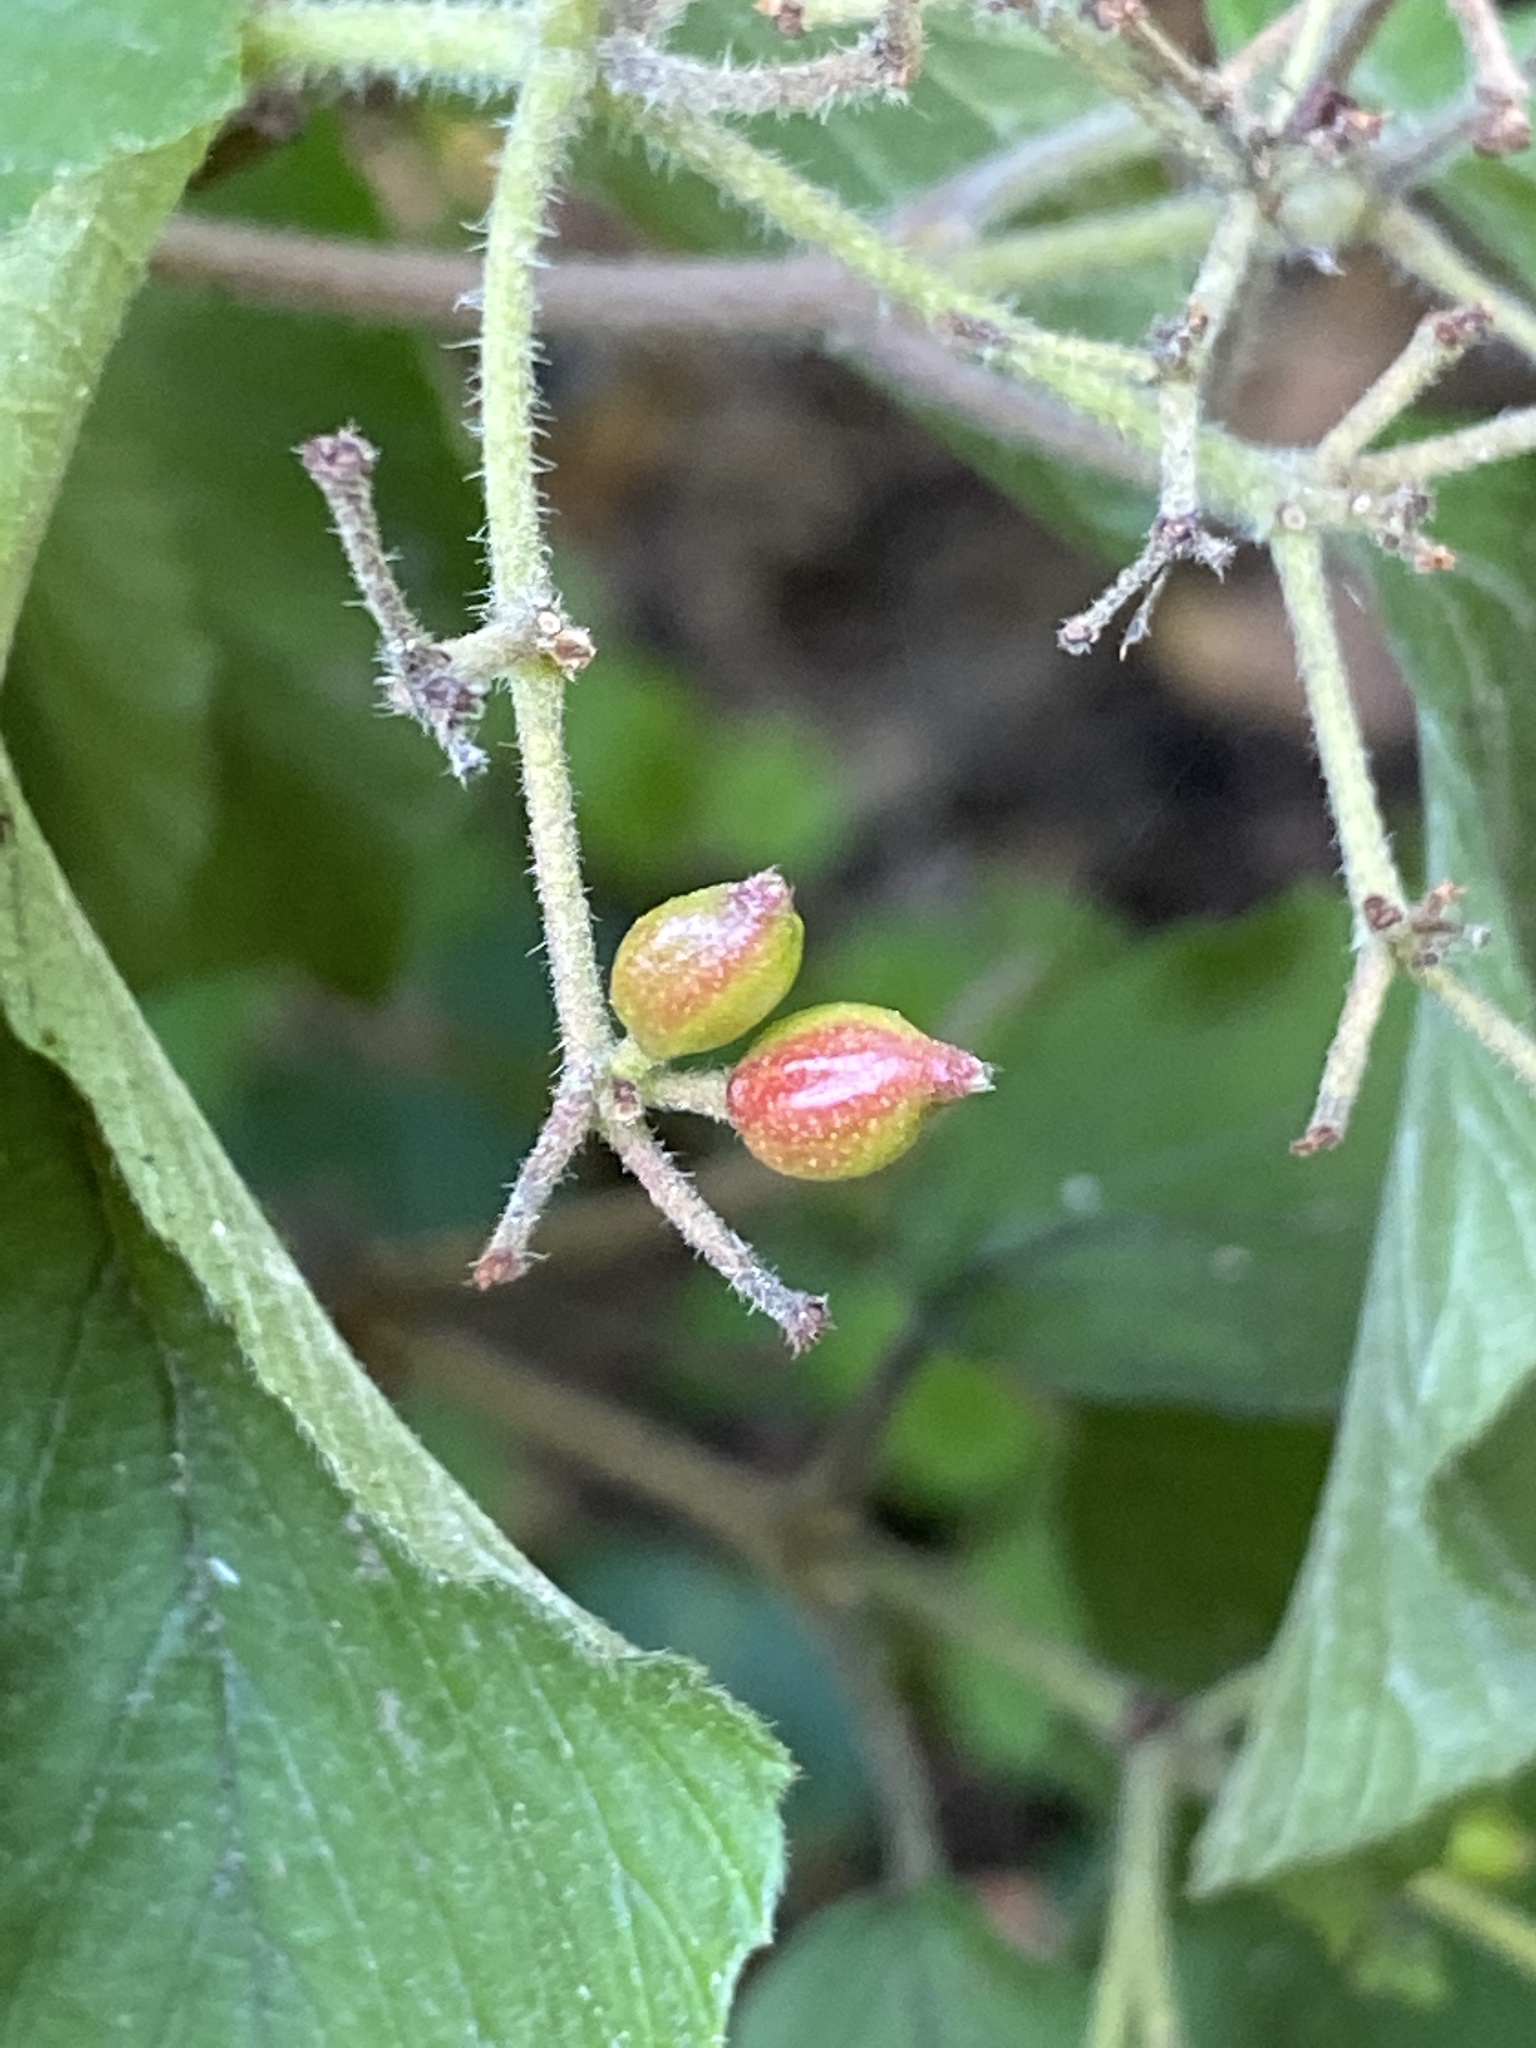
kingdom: Plantae
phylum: Tracheophyta
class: Magnoliopsida
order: Dipsacales
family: Viburnaceae
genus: Viburnum
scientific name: Viburnum dilatatum
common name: Linden arrowwood
